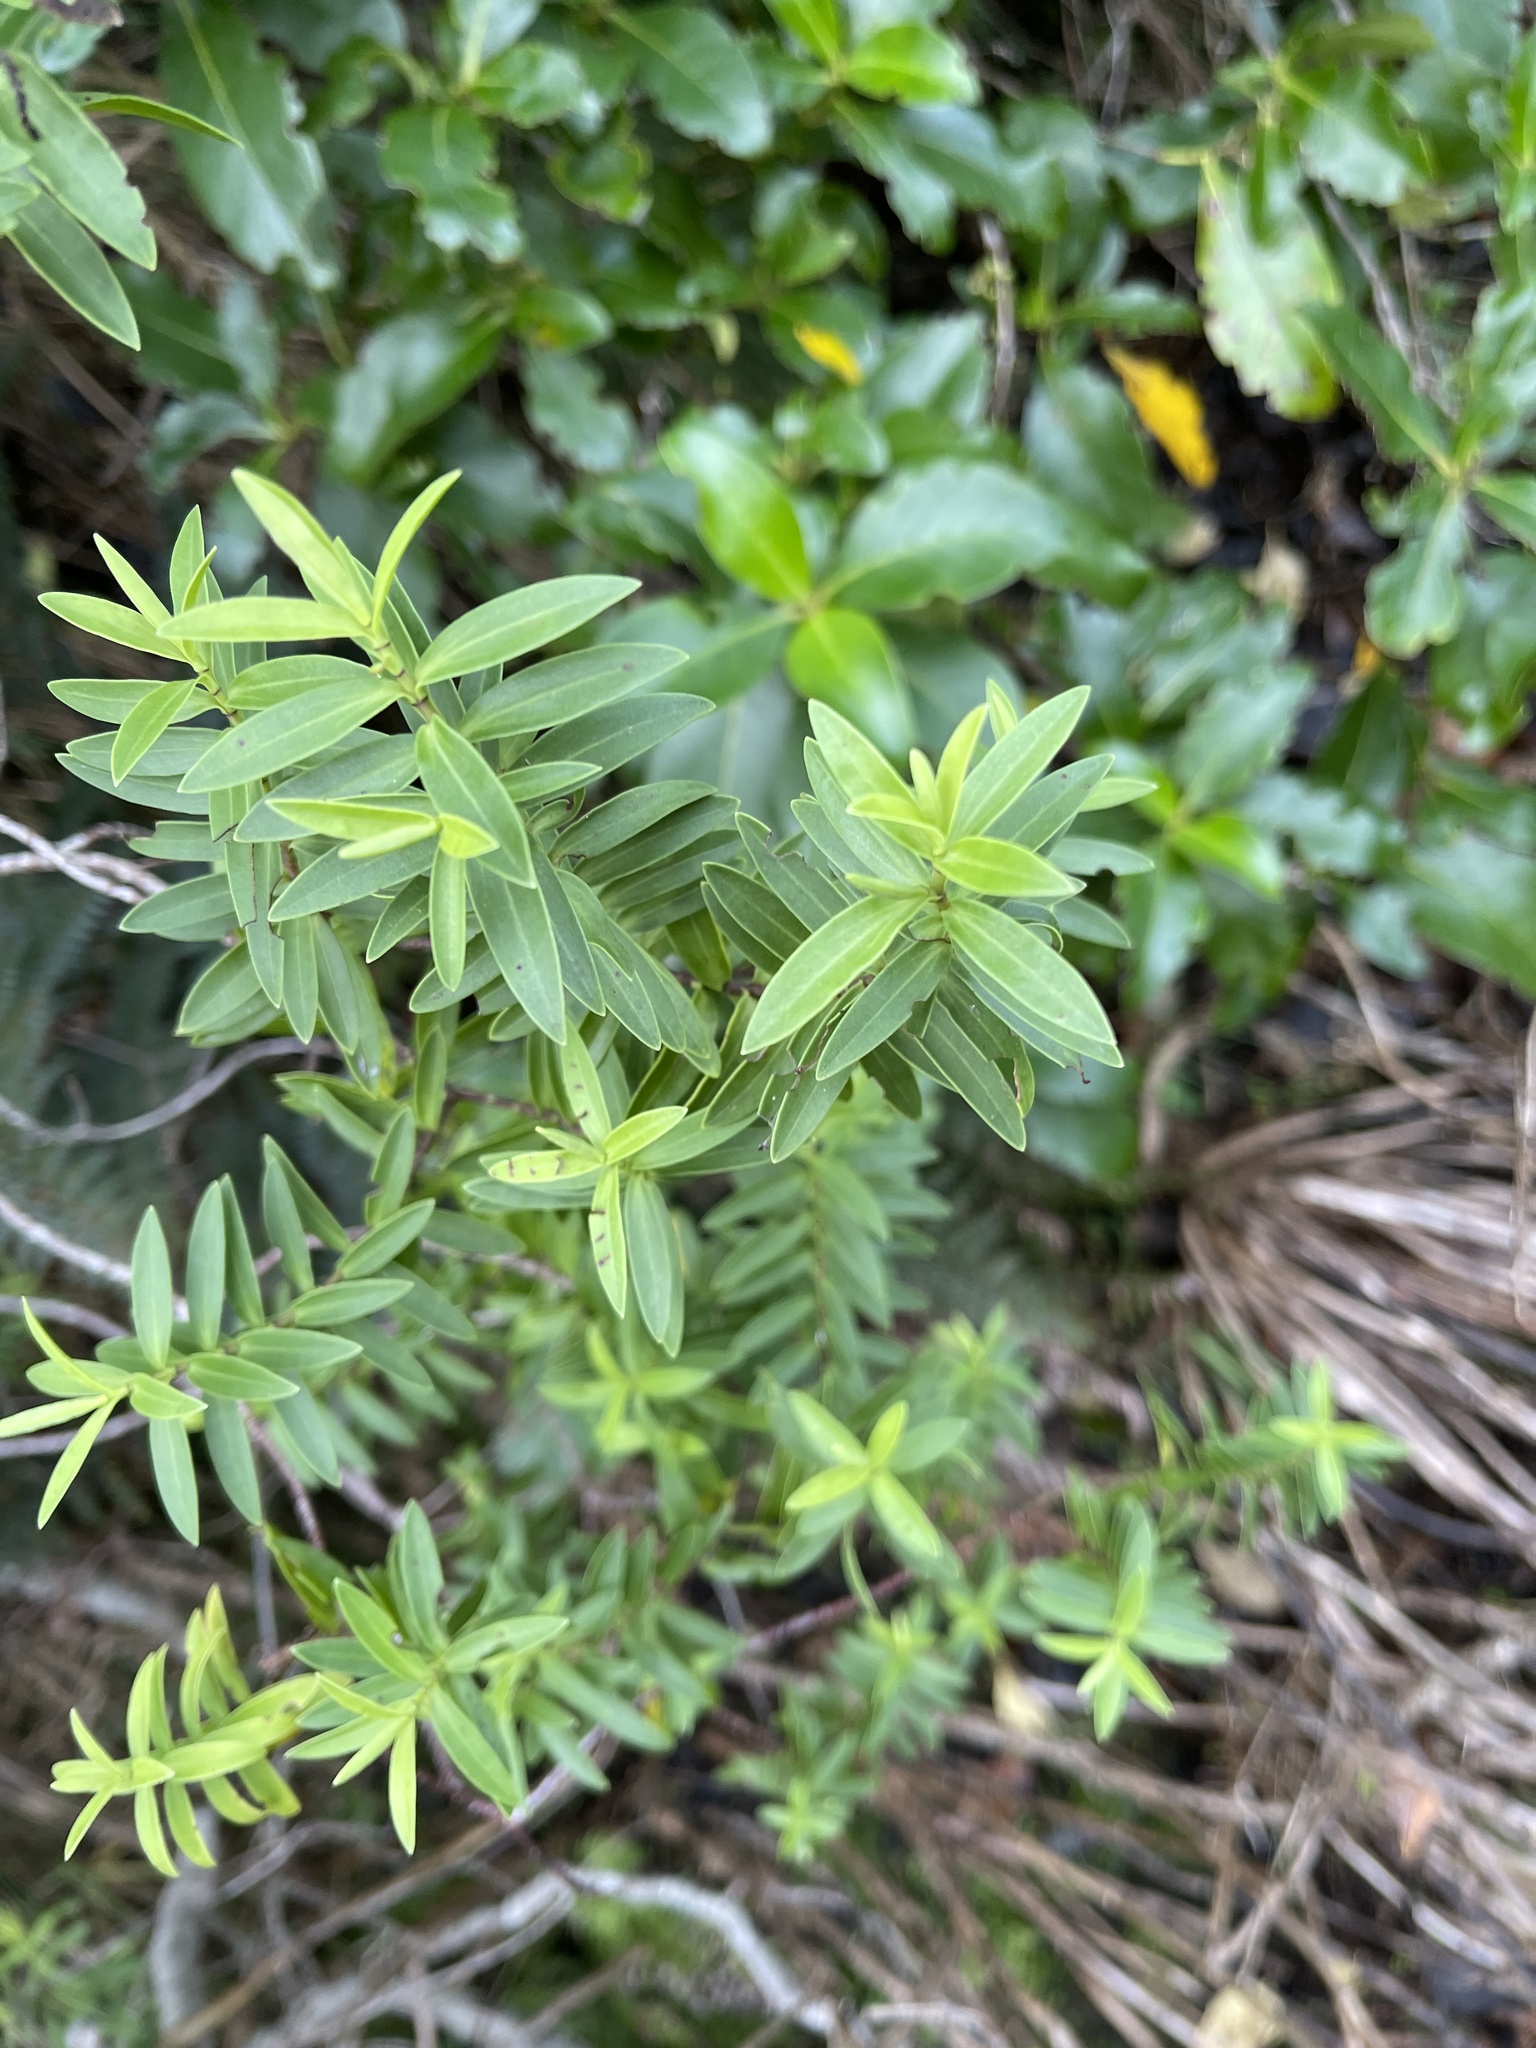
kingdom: Plantae
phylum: Tracheophyta
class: Magnoliopsida
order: Lamiales
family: Plantaginaceae
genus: Veronica
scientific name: Veronica strictissima
